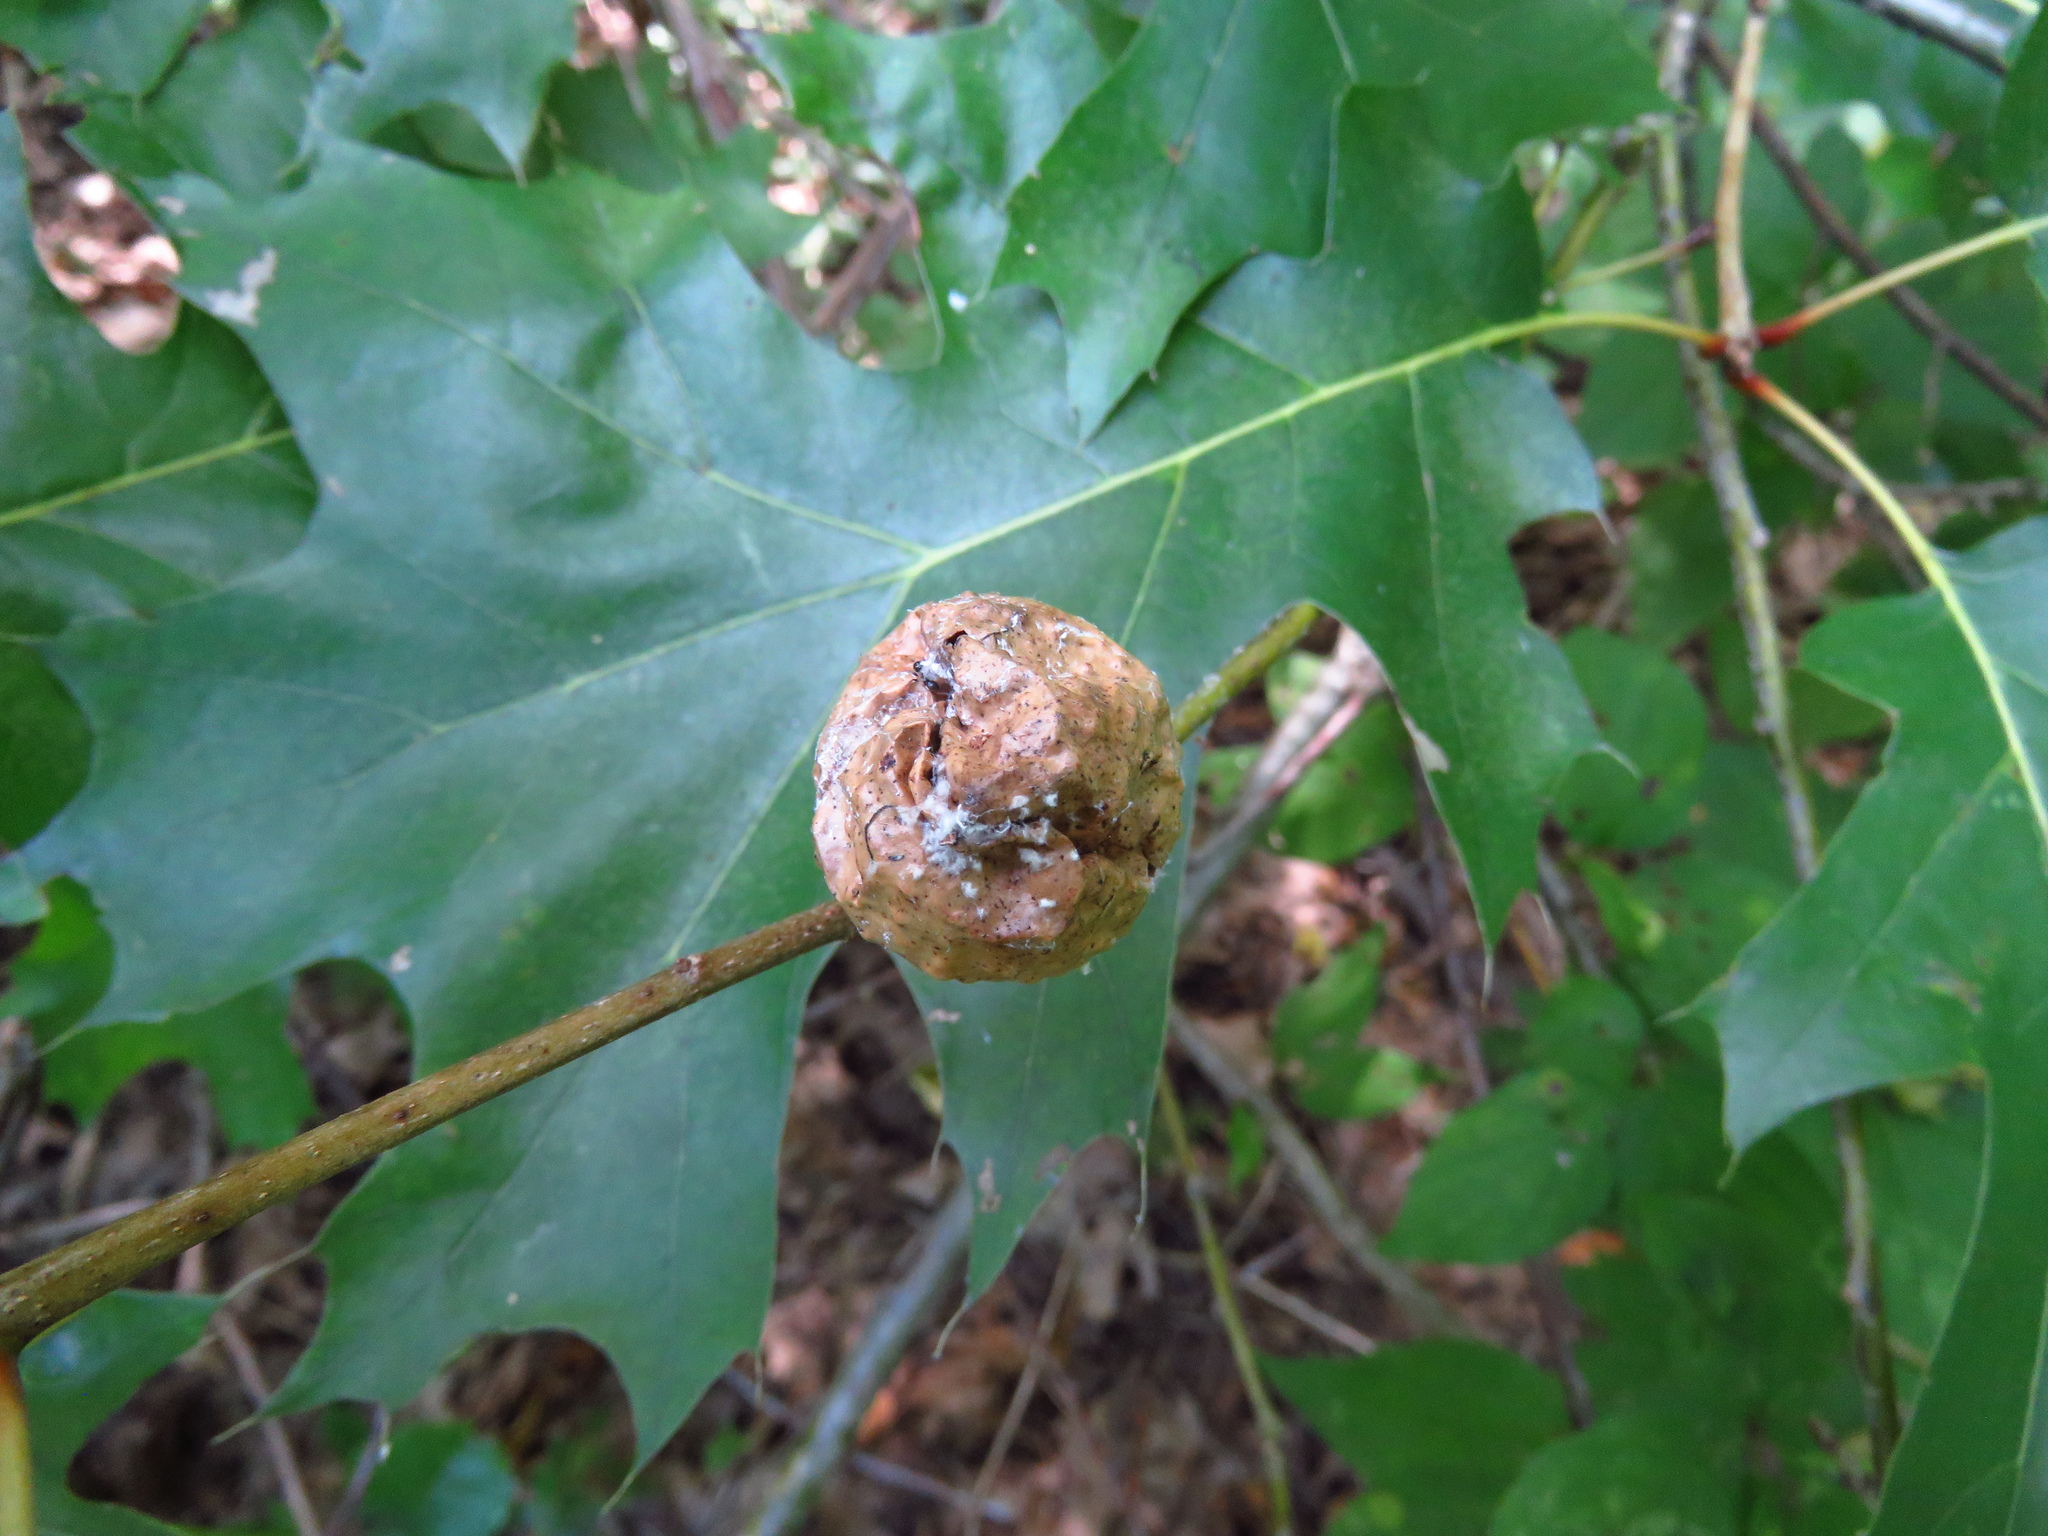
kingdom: Animalia
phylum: Arthropoda
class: Insecta
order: Hymenoptera
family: Cynipidae
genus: Amphibolips
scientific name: Amphibolips
